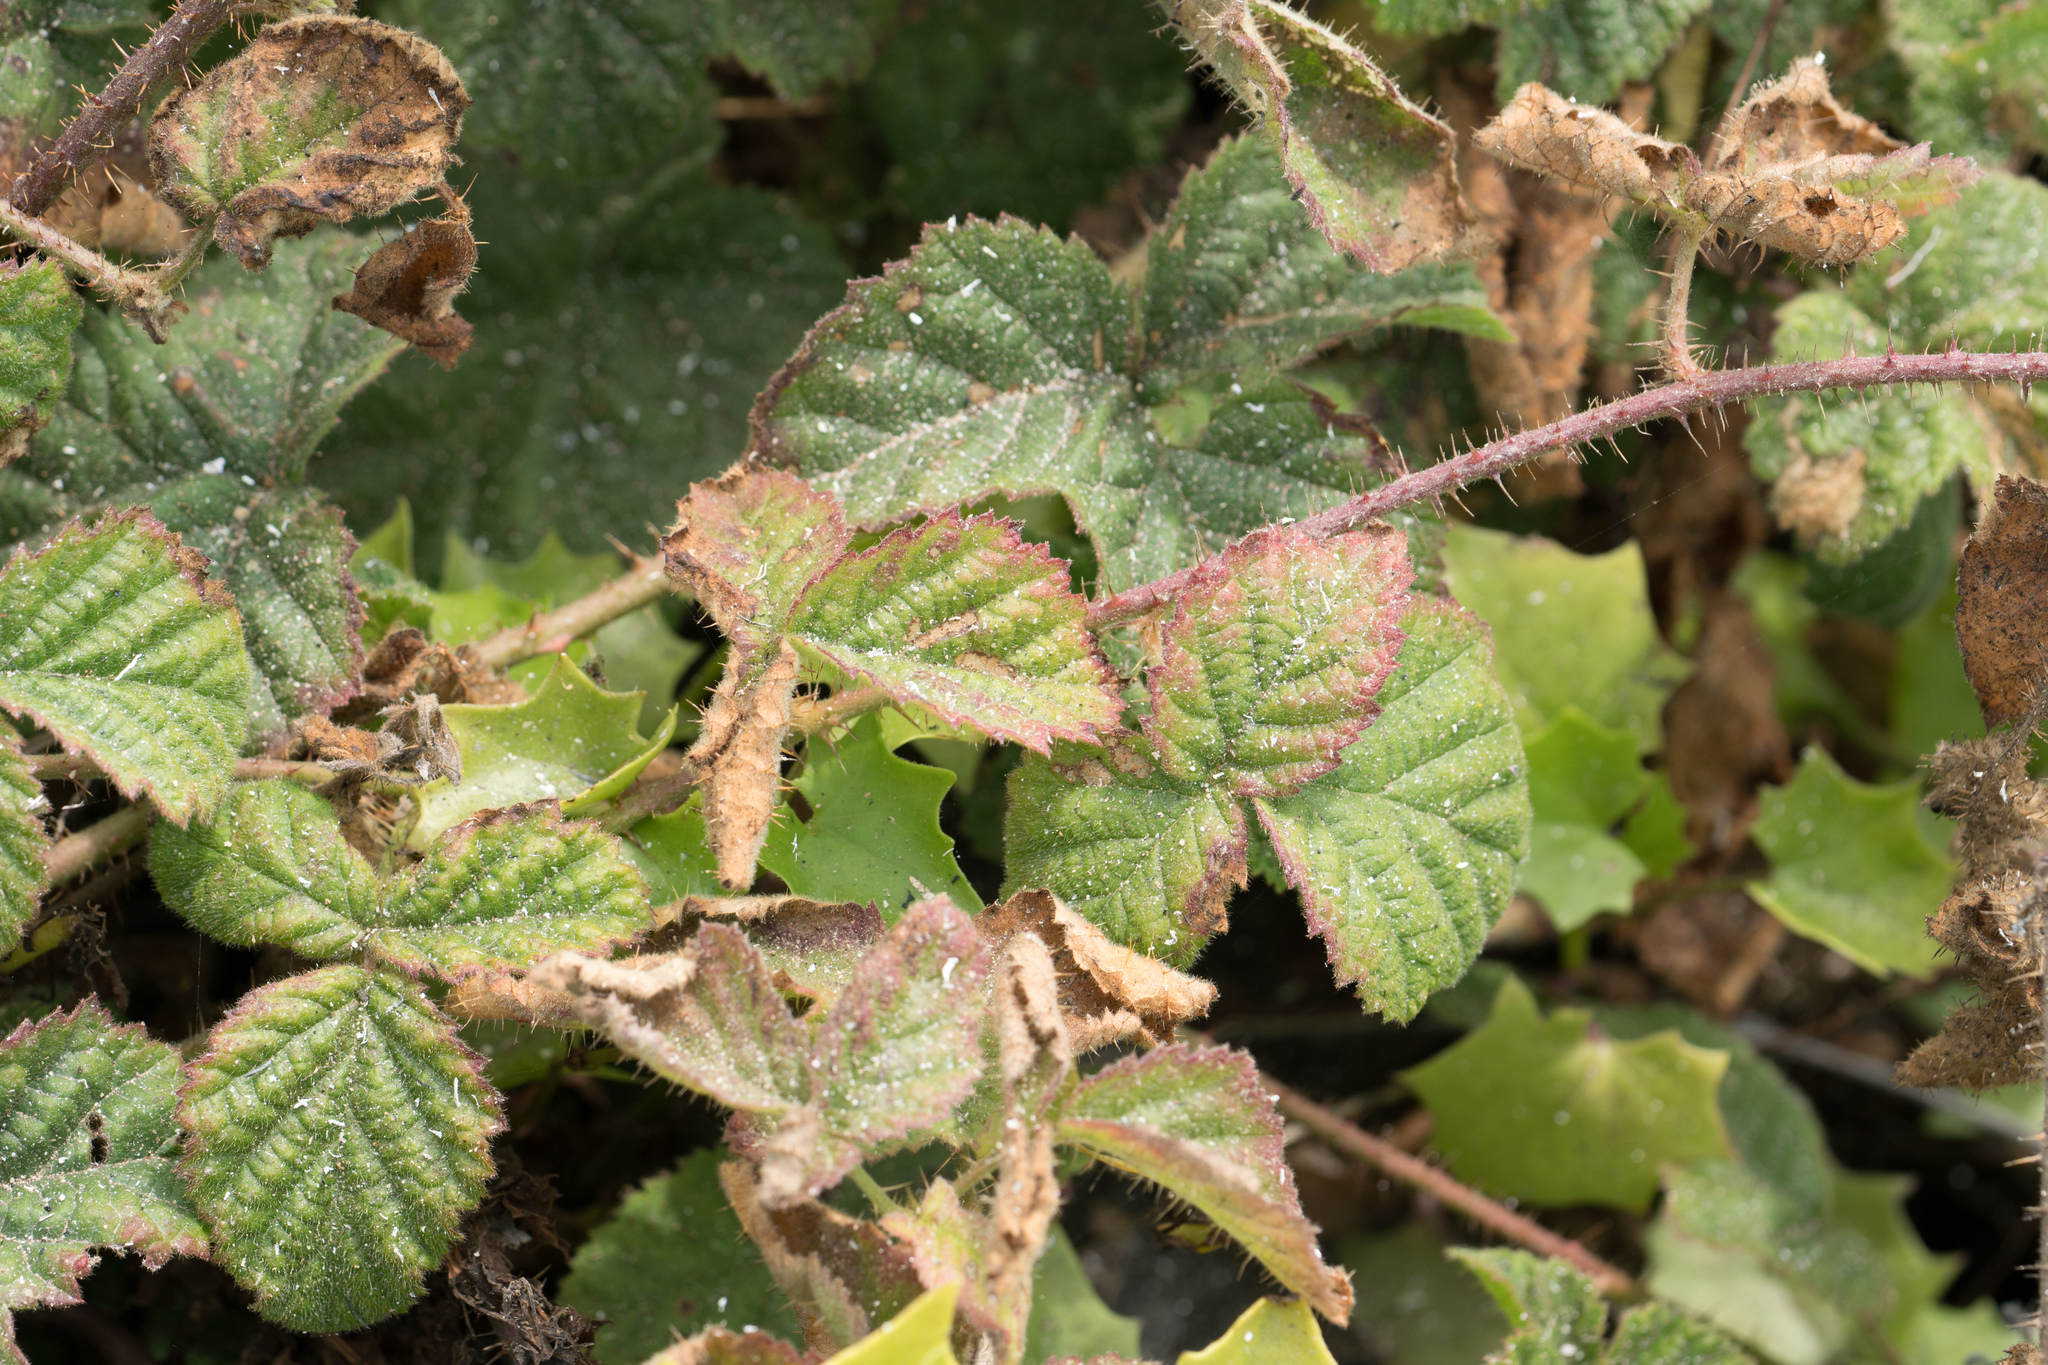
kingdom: Plantae
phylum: Tracheophyta
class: Magnoliopsida
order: Rosales
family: Rosaceae
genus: Rubus
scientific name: Rubus ursinus
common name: Pacific blackberry
